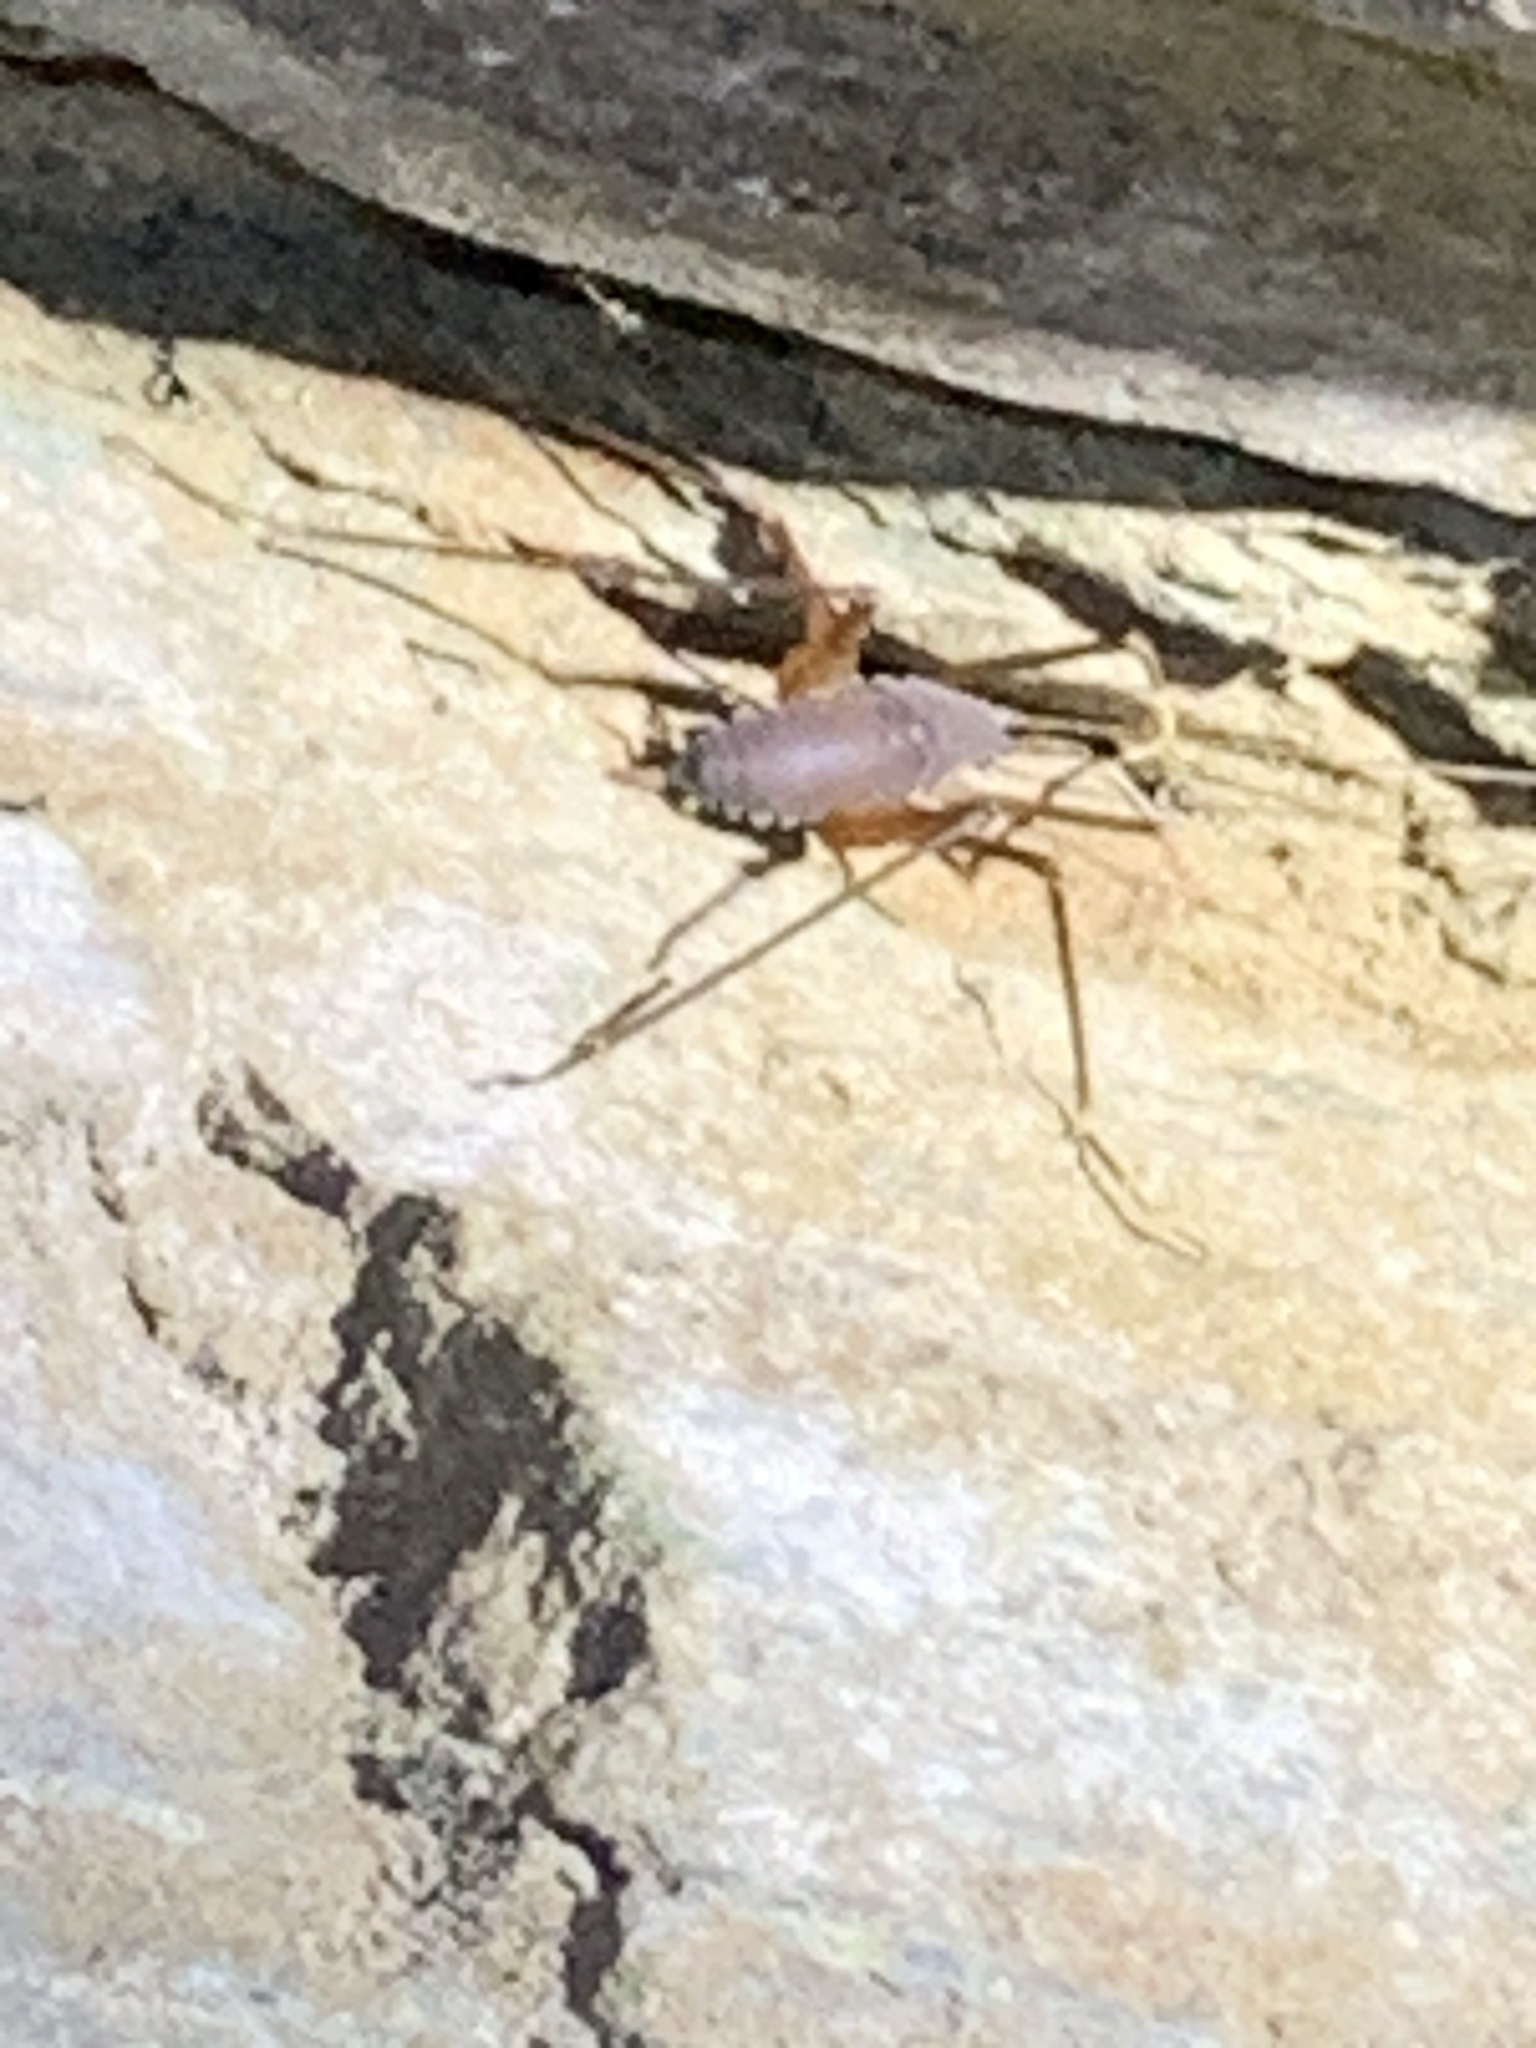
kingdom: Animalia
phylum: Arthropoda
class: Insecta
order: Orthoptera
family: Rhaphidophoridae
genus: Tropidischia
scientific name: Tropidischia xanthostoma
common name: Square-legged camel cricket
